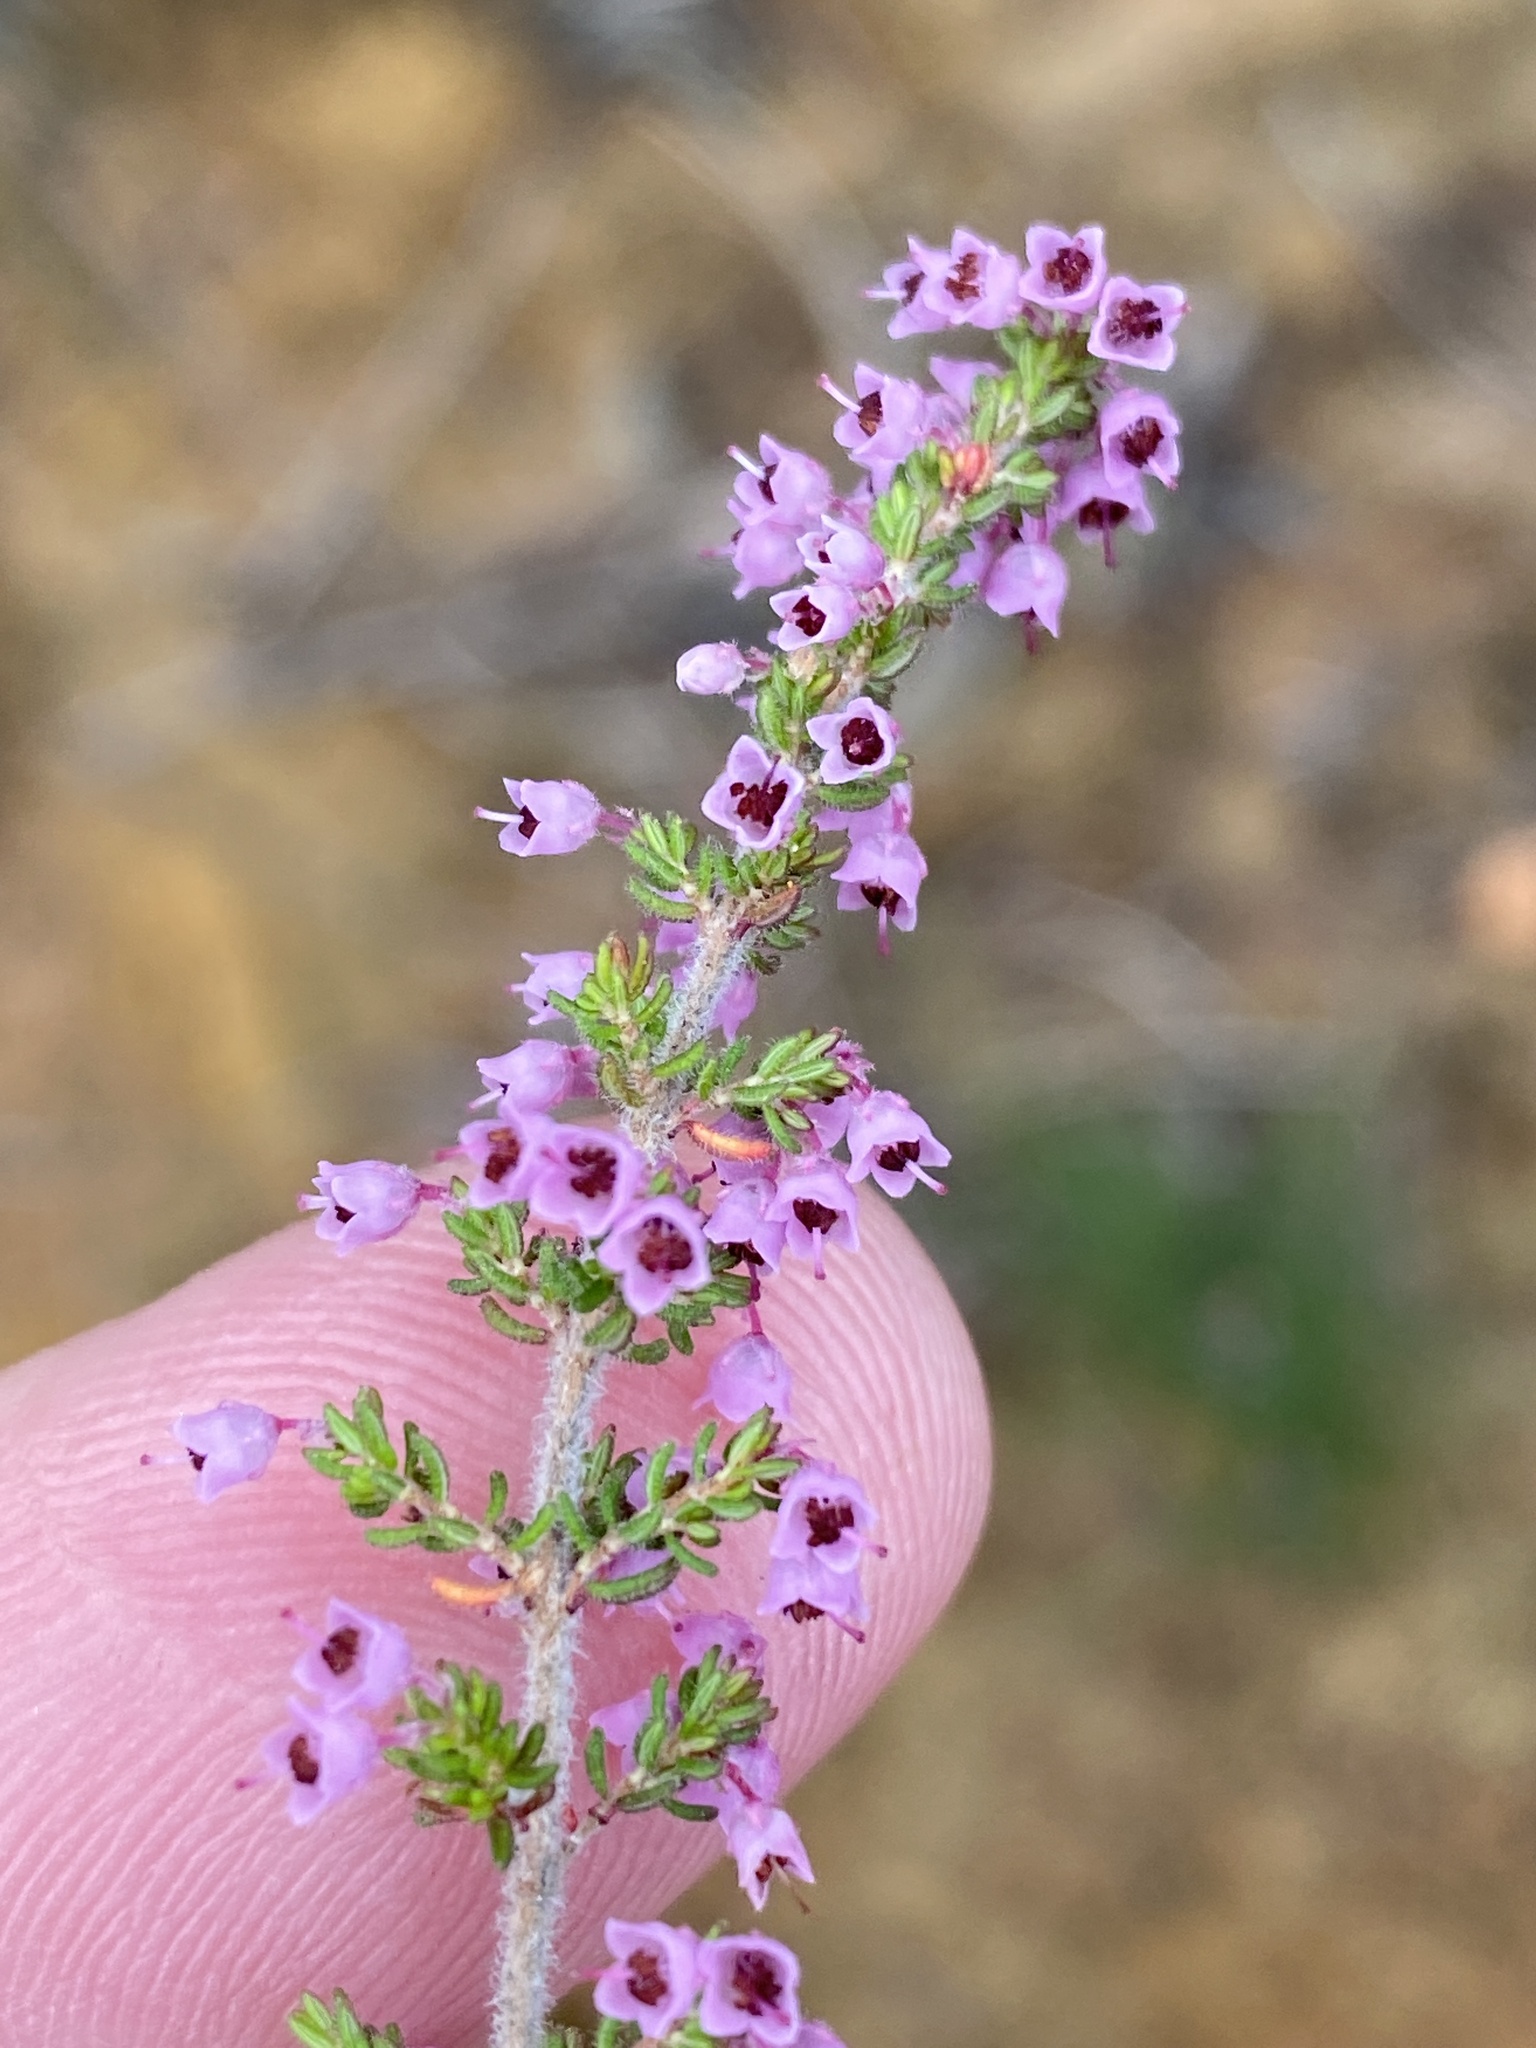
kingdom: Plantae
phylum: Tracheophyta
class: Magnoliopsida
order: Ericales
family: Ericaceae
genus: Erica
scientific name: Erica onusta
